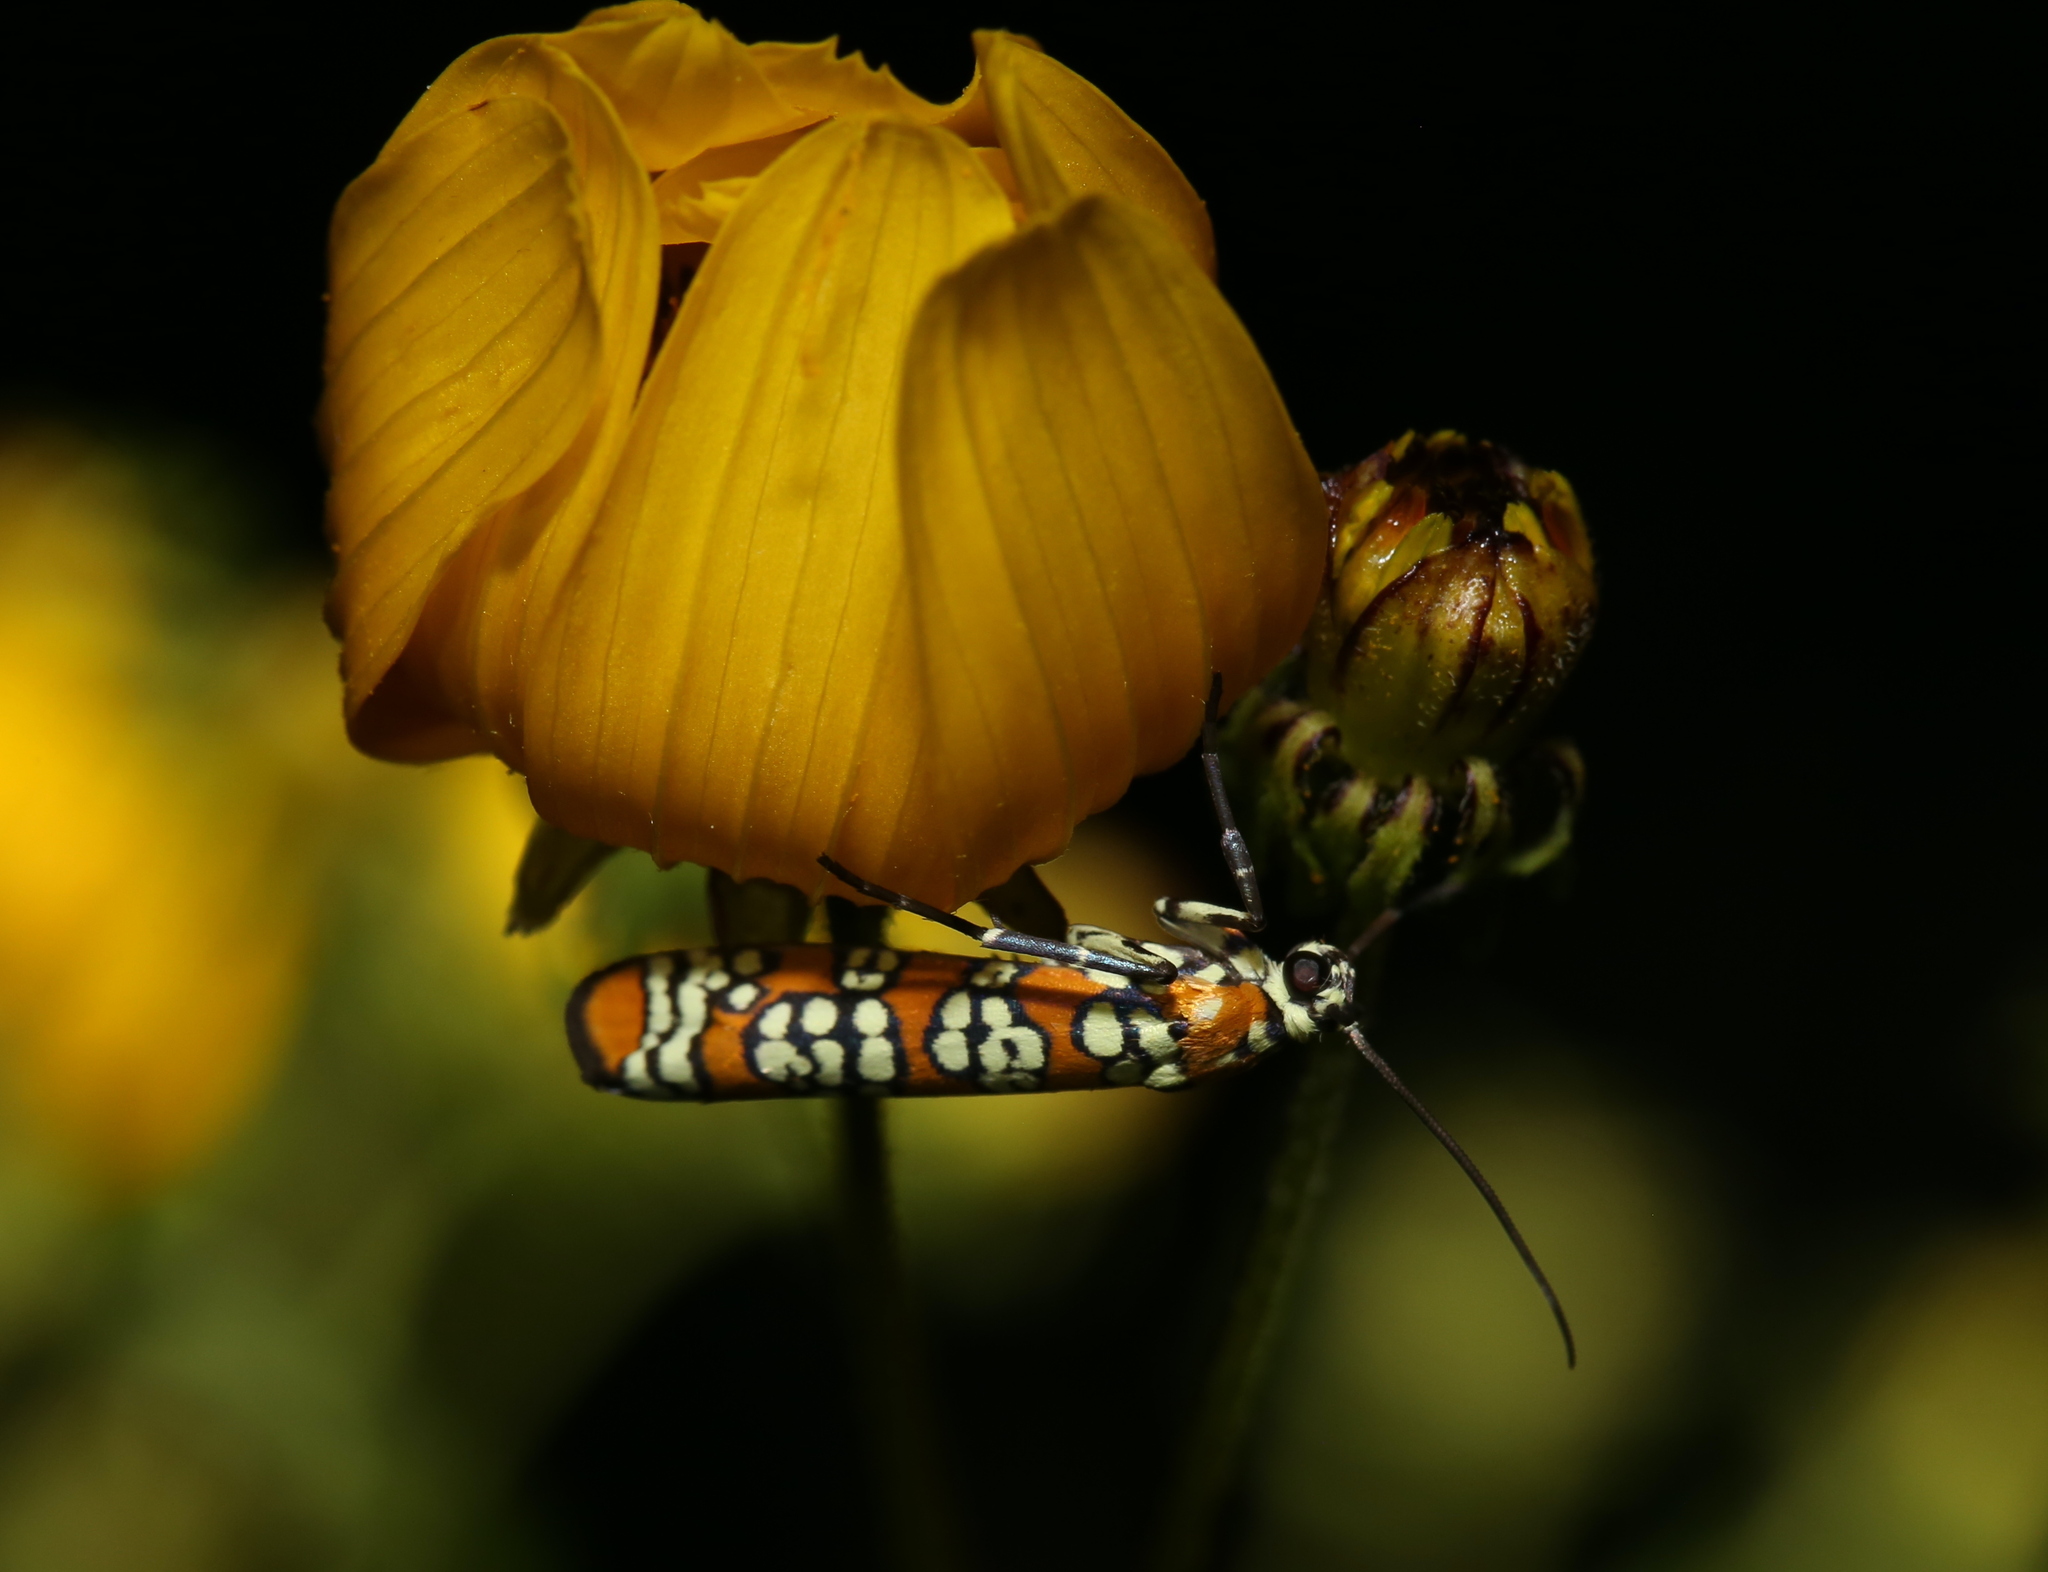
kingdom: Animalia
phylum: Arthropoda
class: Insecta
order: Lepidoptera
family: Attevidae
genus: Atteva
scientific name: Atteva punctella
